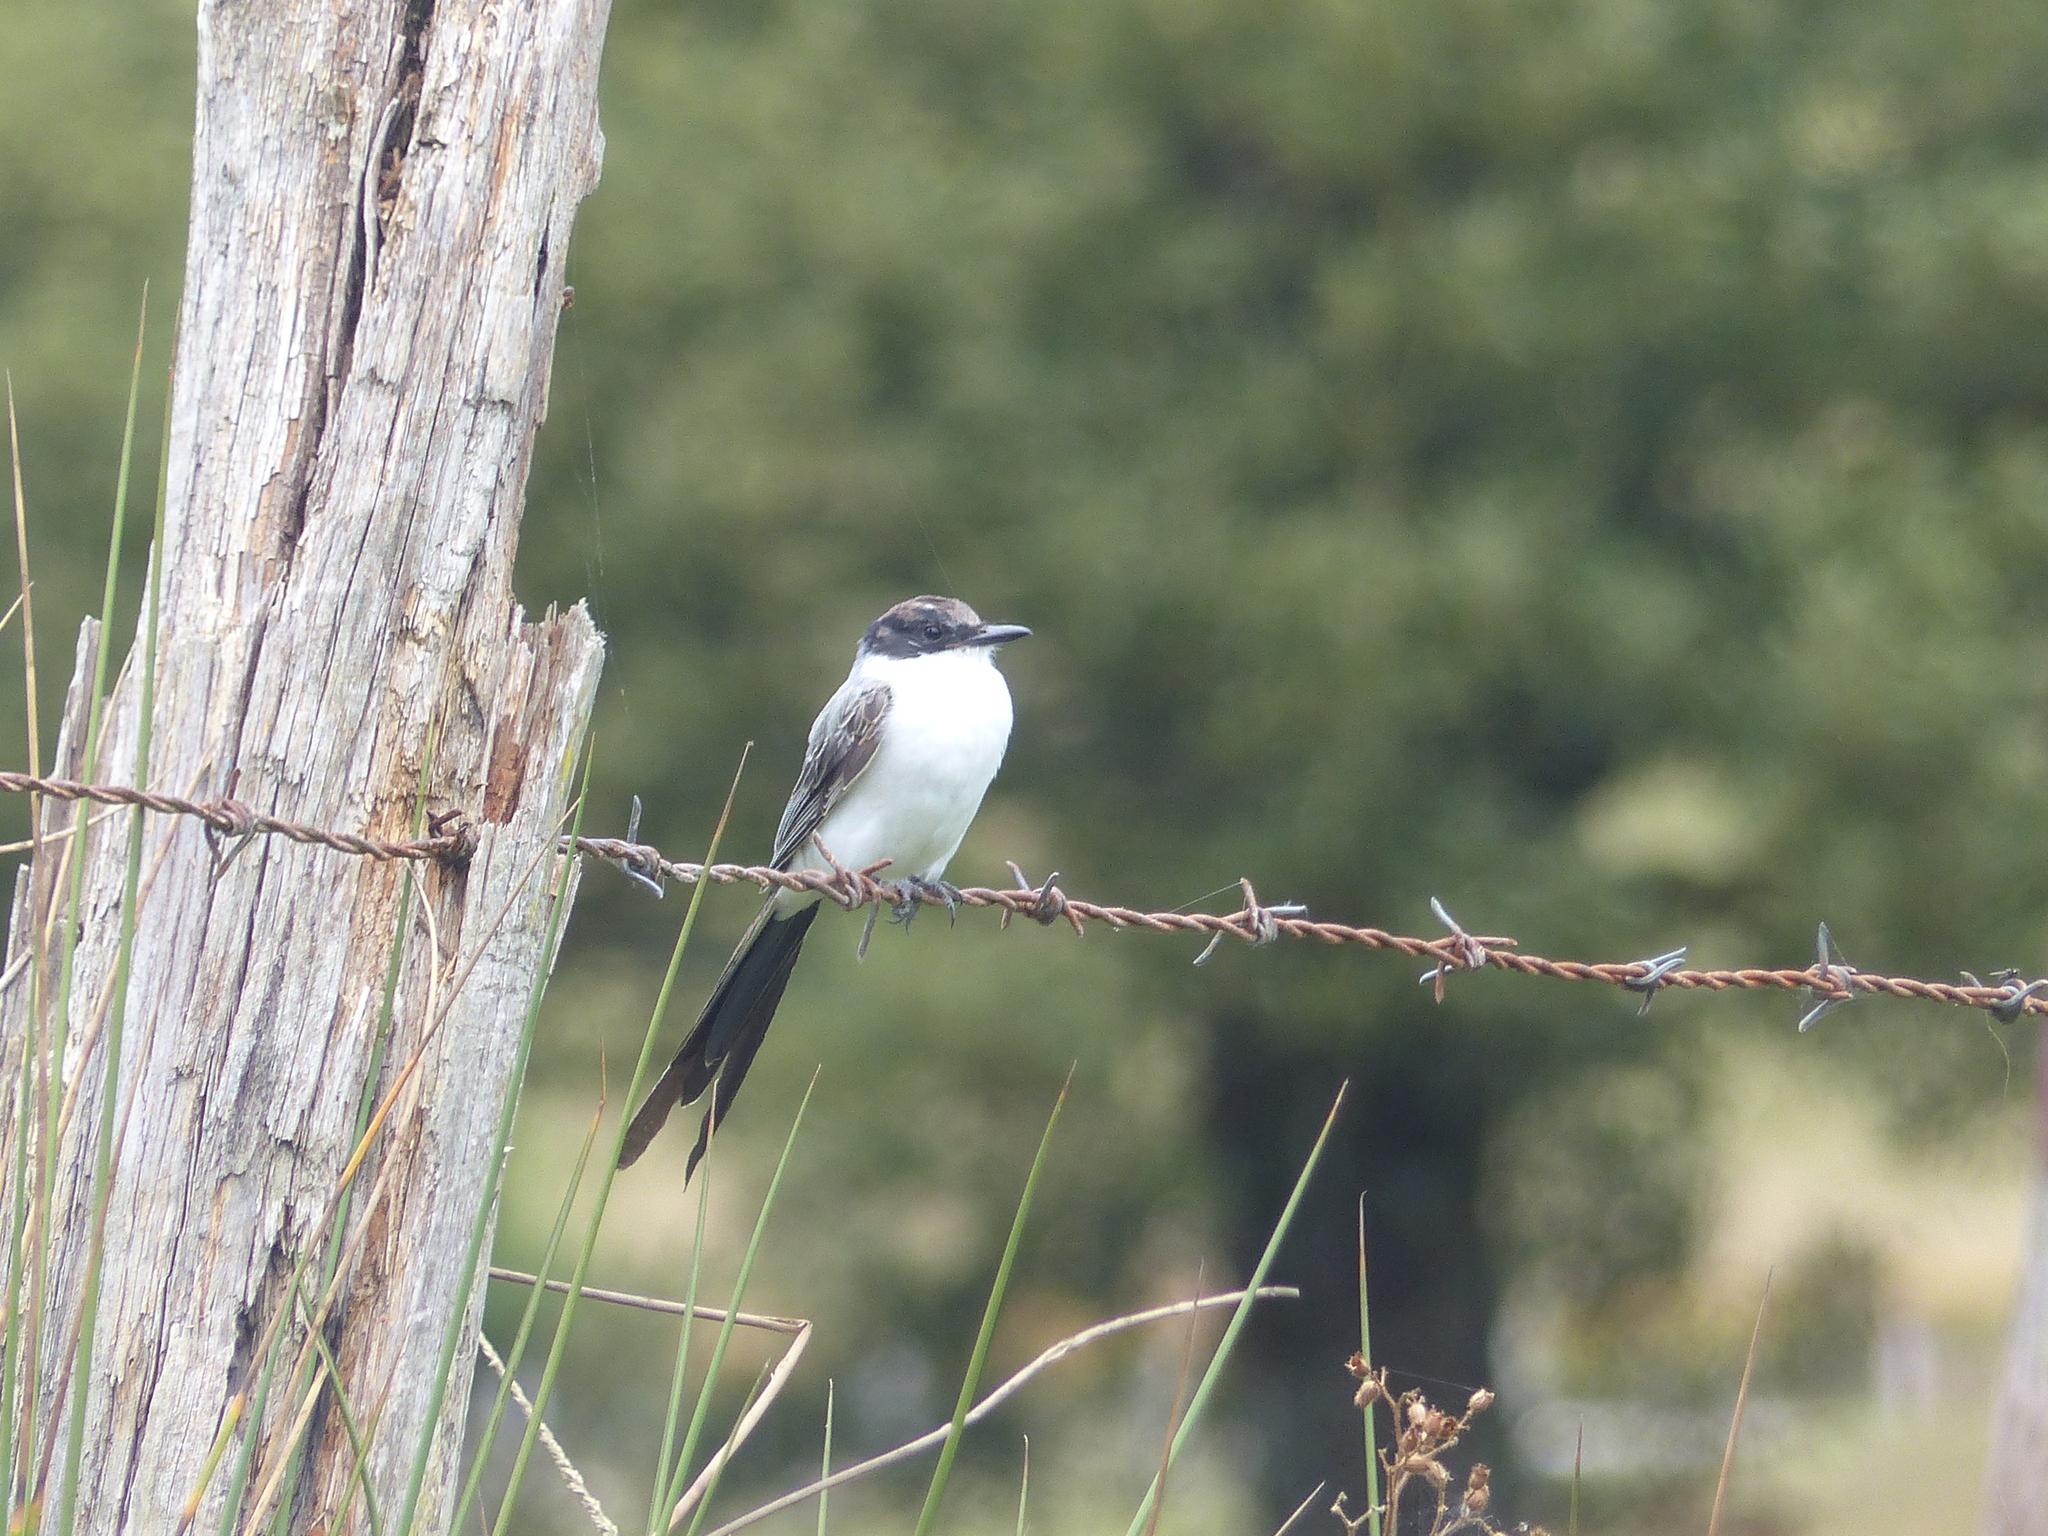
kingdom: Animalia
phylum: Chordata
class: Aves
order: Passeriformes
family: Tyrannidae
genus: Tyrannus
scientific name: Tyrannus savana
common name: Fork-tailed flycatcher
